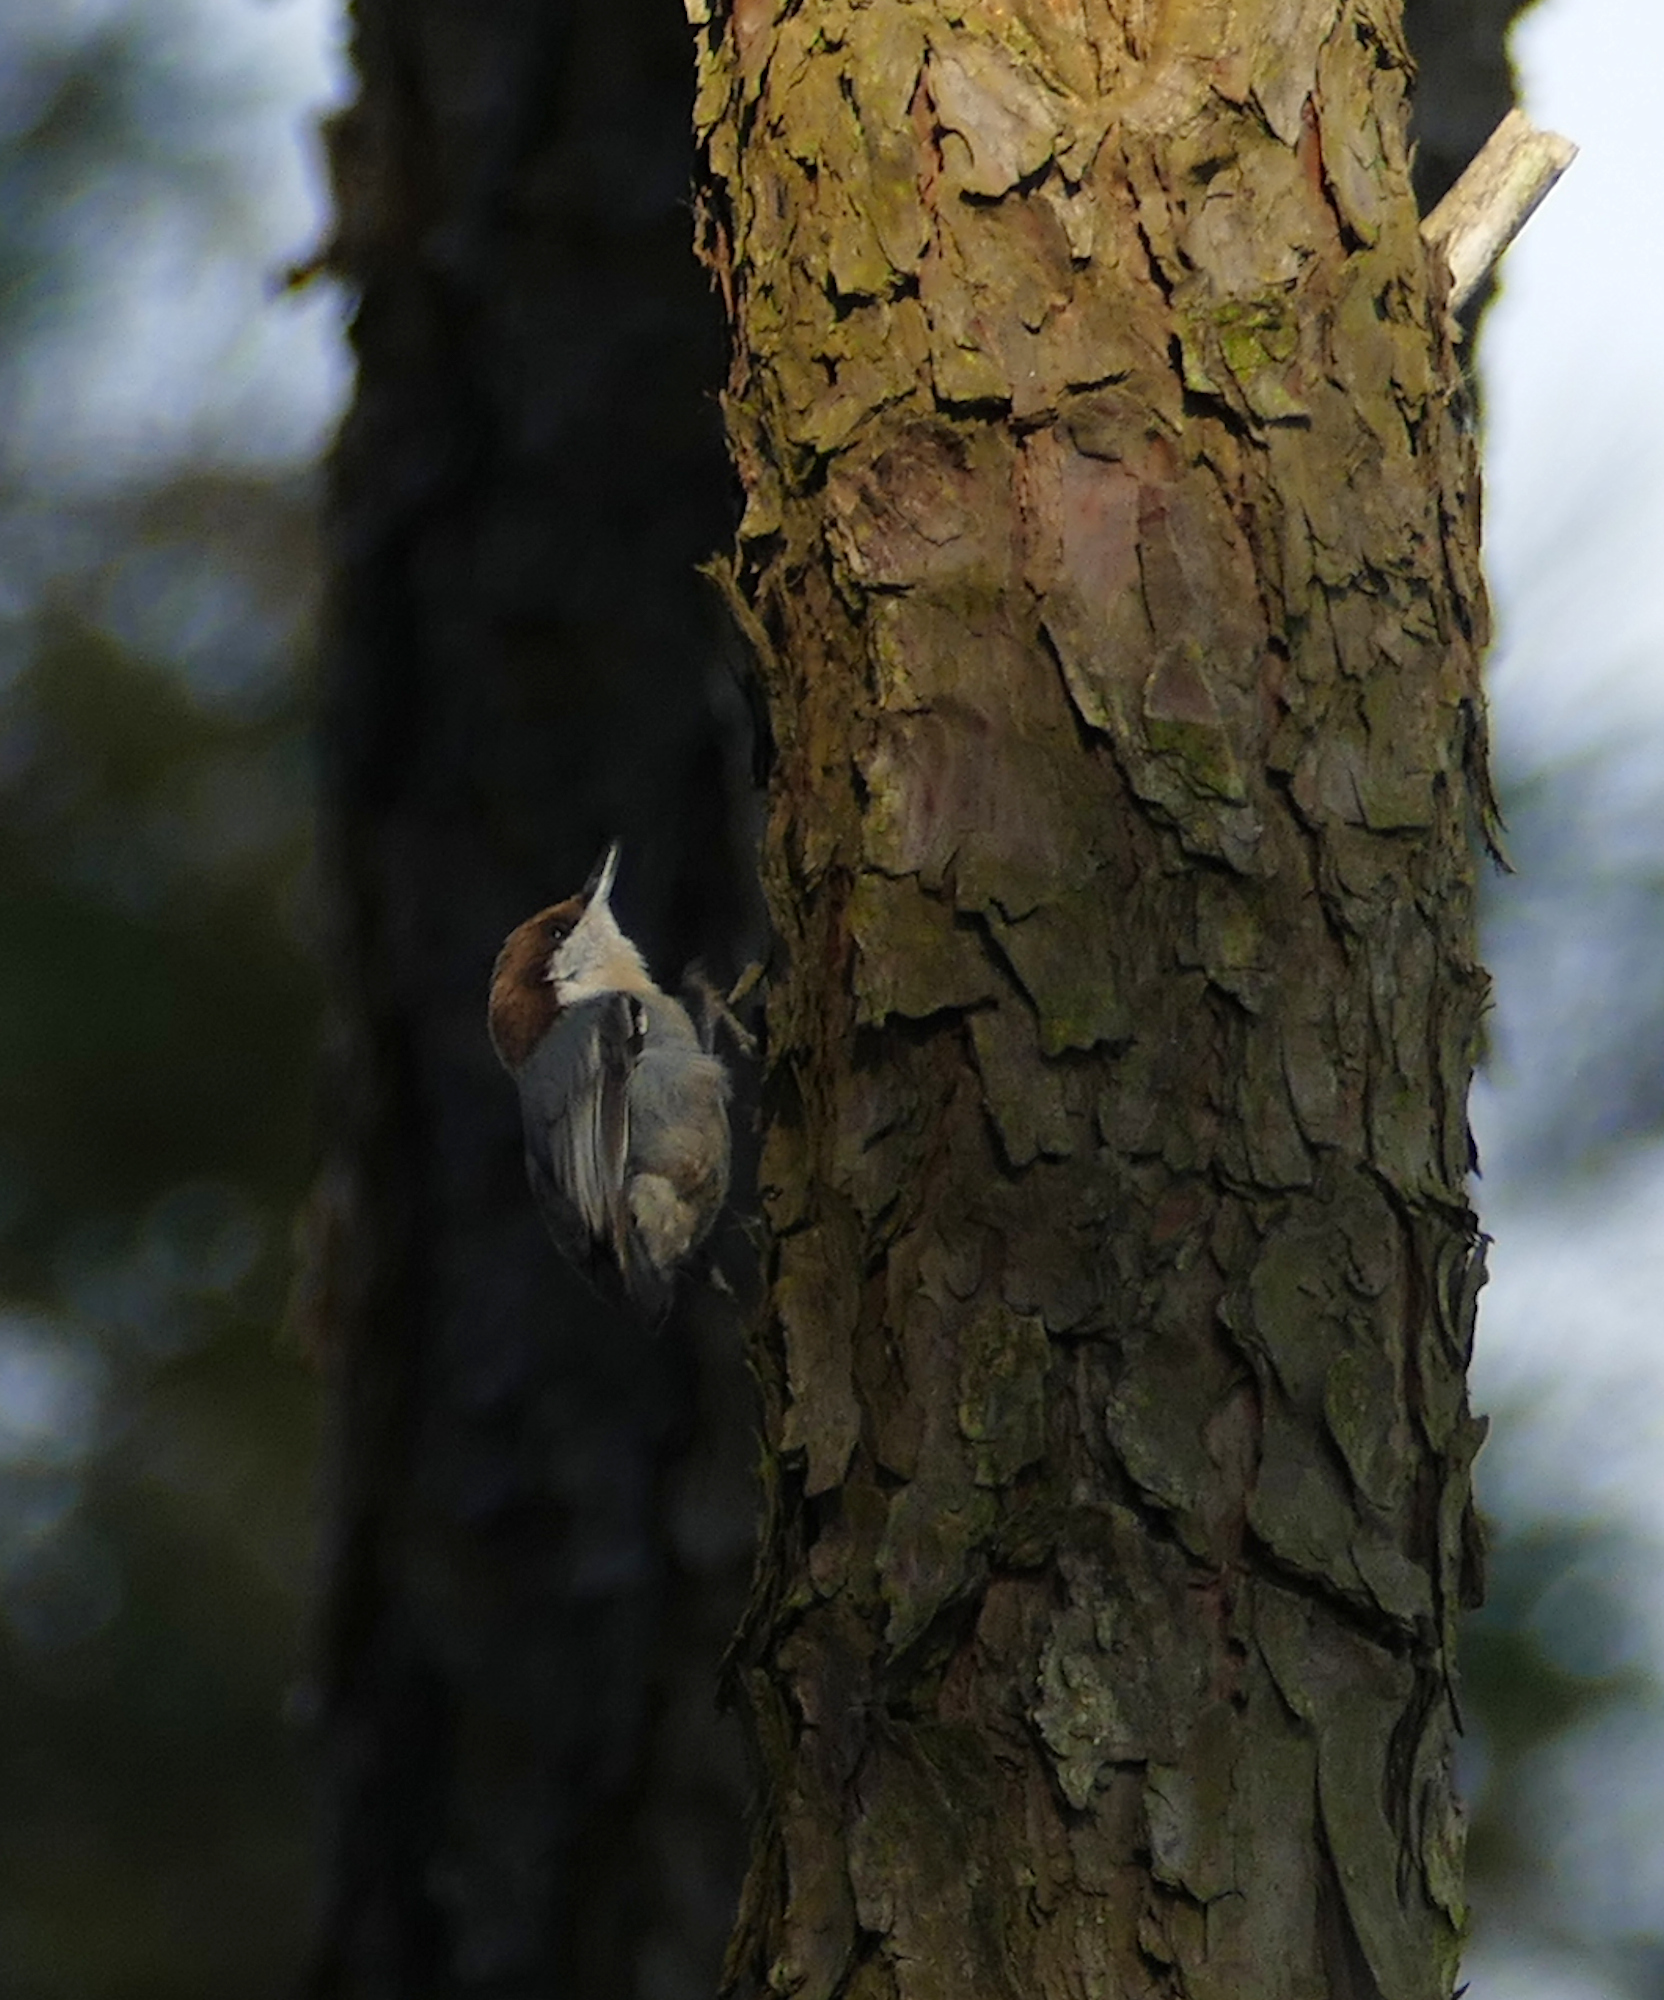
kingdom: Animalia
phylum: Chordata
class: Aves
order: Passeriformes
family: Sittidae
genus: Sitta
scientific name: Sitta pusilla
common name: Brown-headed nuthatch
